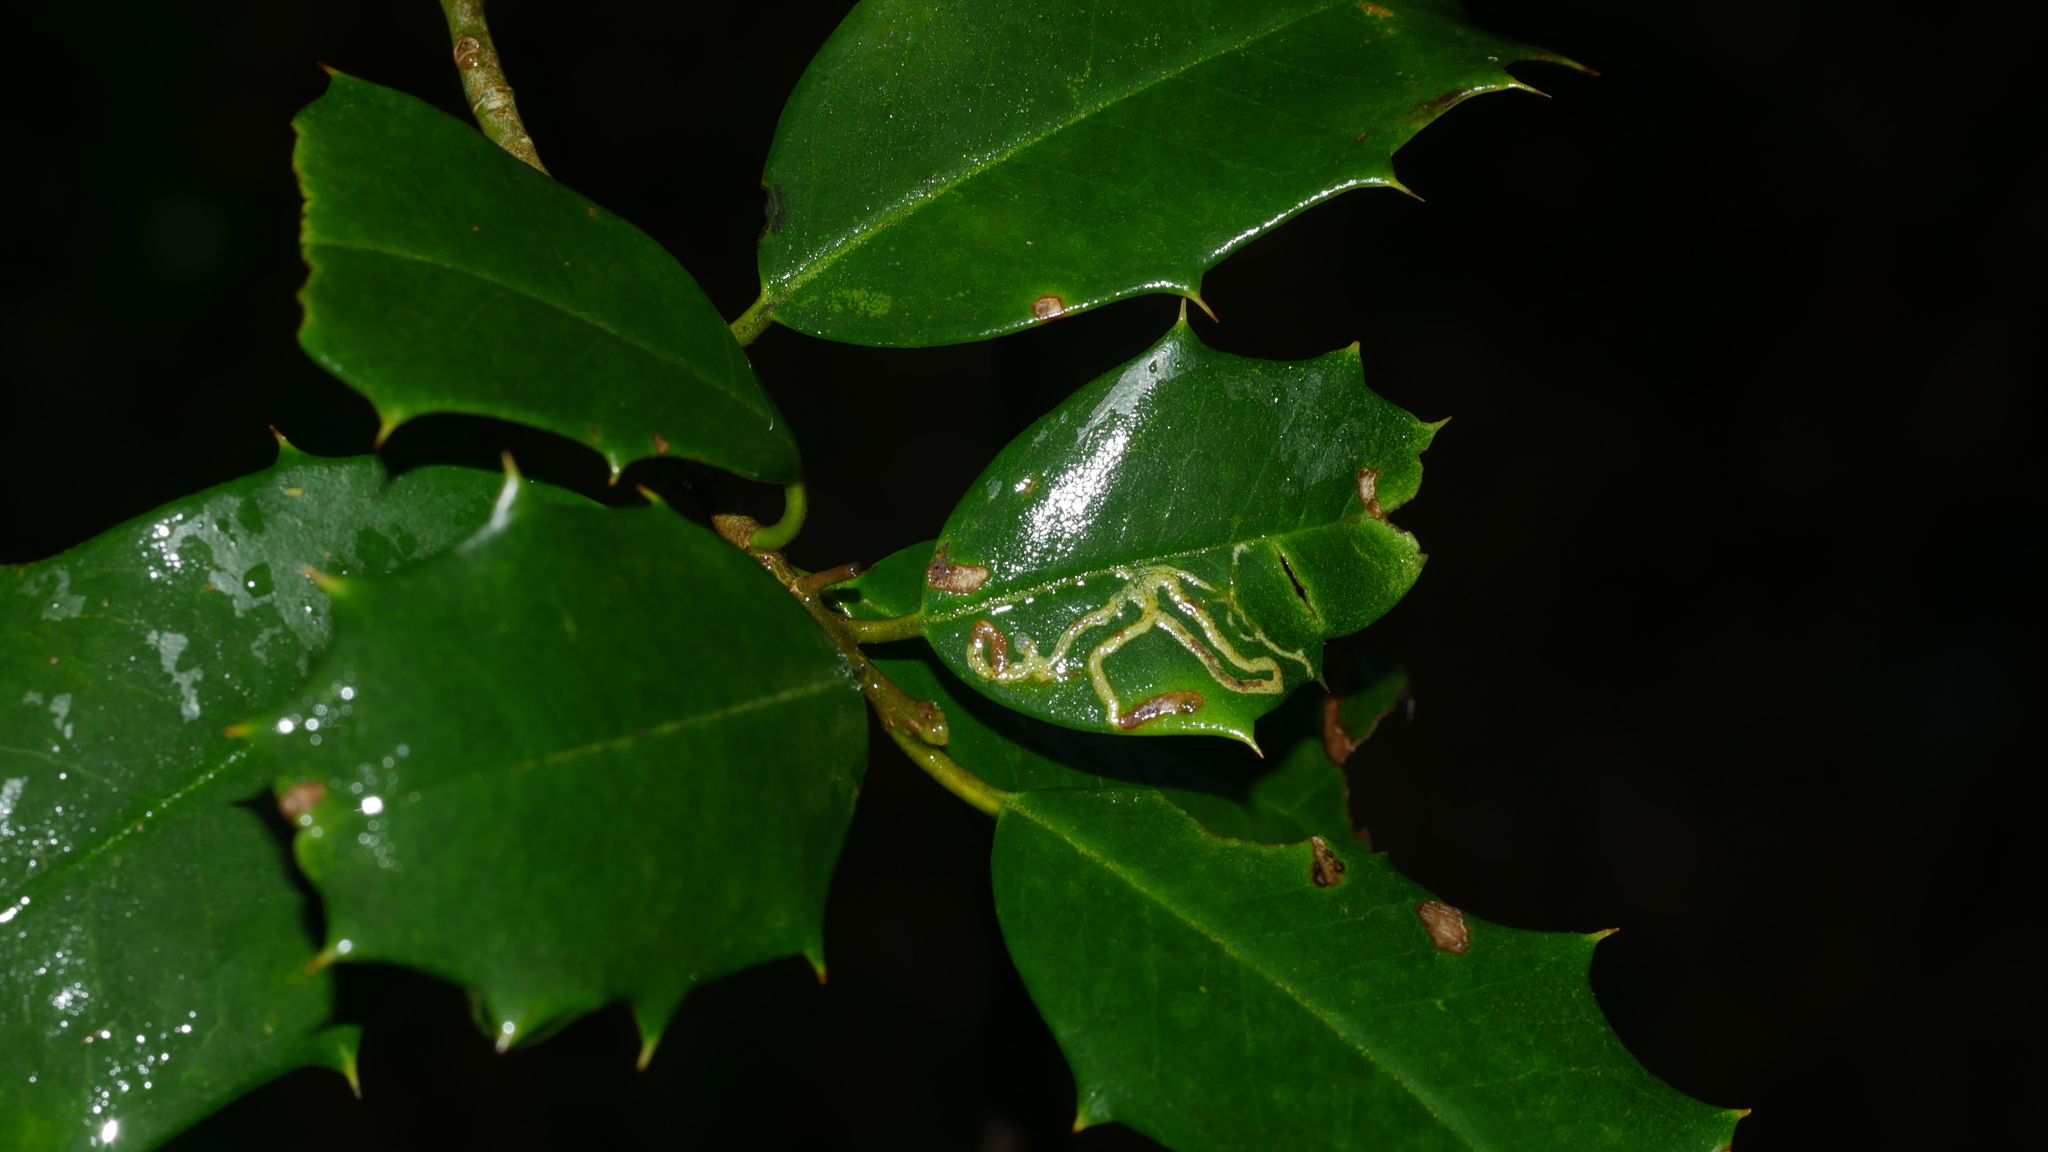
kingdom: Animalia
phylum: Arthropoda
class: Insecta
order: Diptera
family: Agromyzidae
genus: Phytomyza
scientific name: Phytomyza opacae
